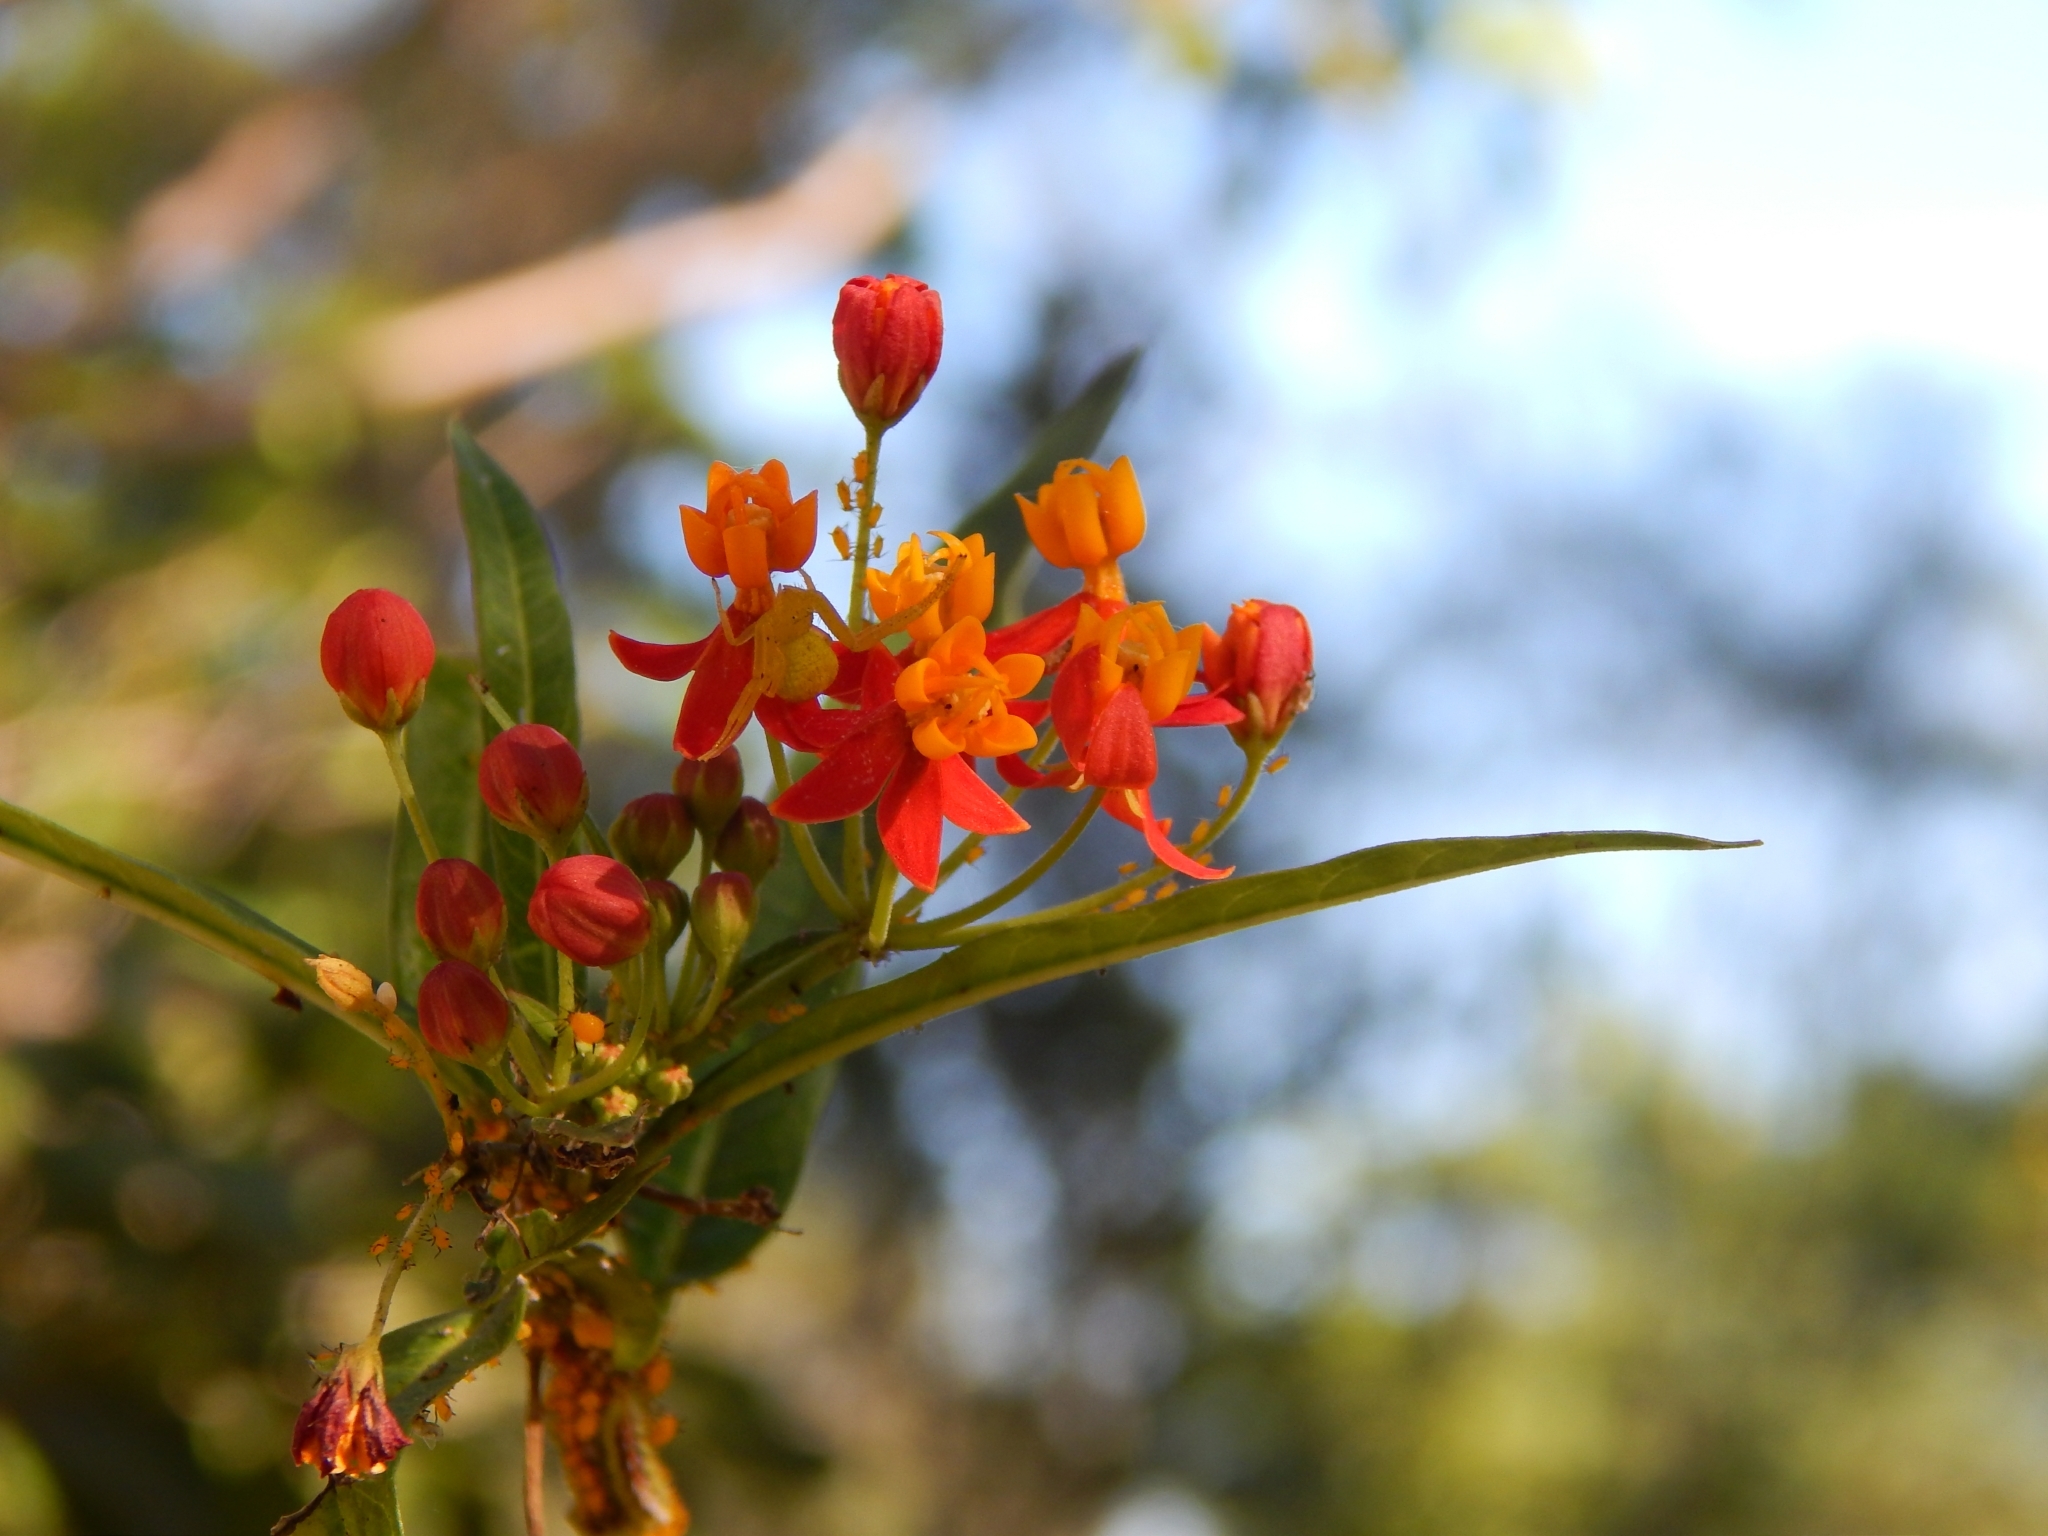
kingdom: Plantae
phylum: Tracheophyta
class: Magnoliopsida
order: Gentianales
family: Apocynaceae
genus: Asclepias
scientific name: Asclepias curassavica
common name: Bloodflower
